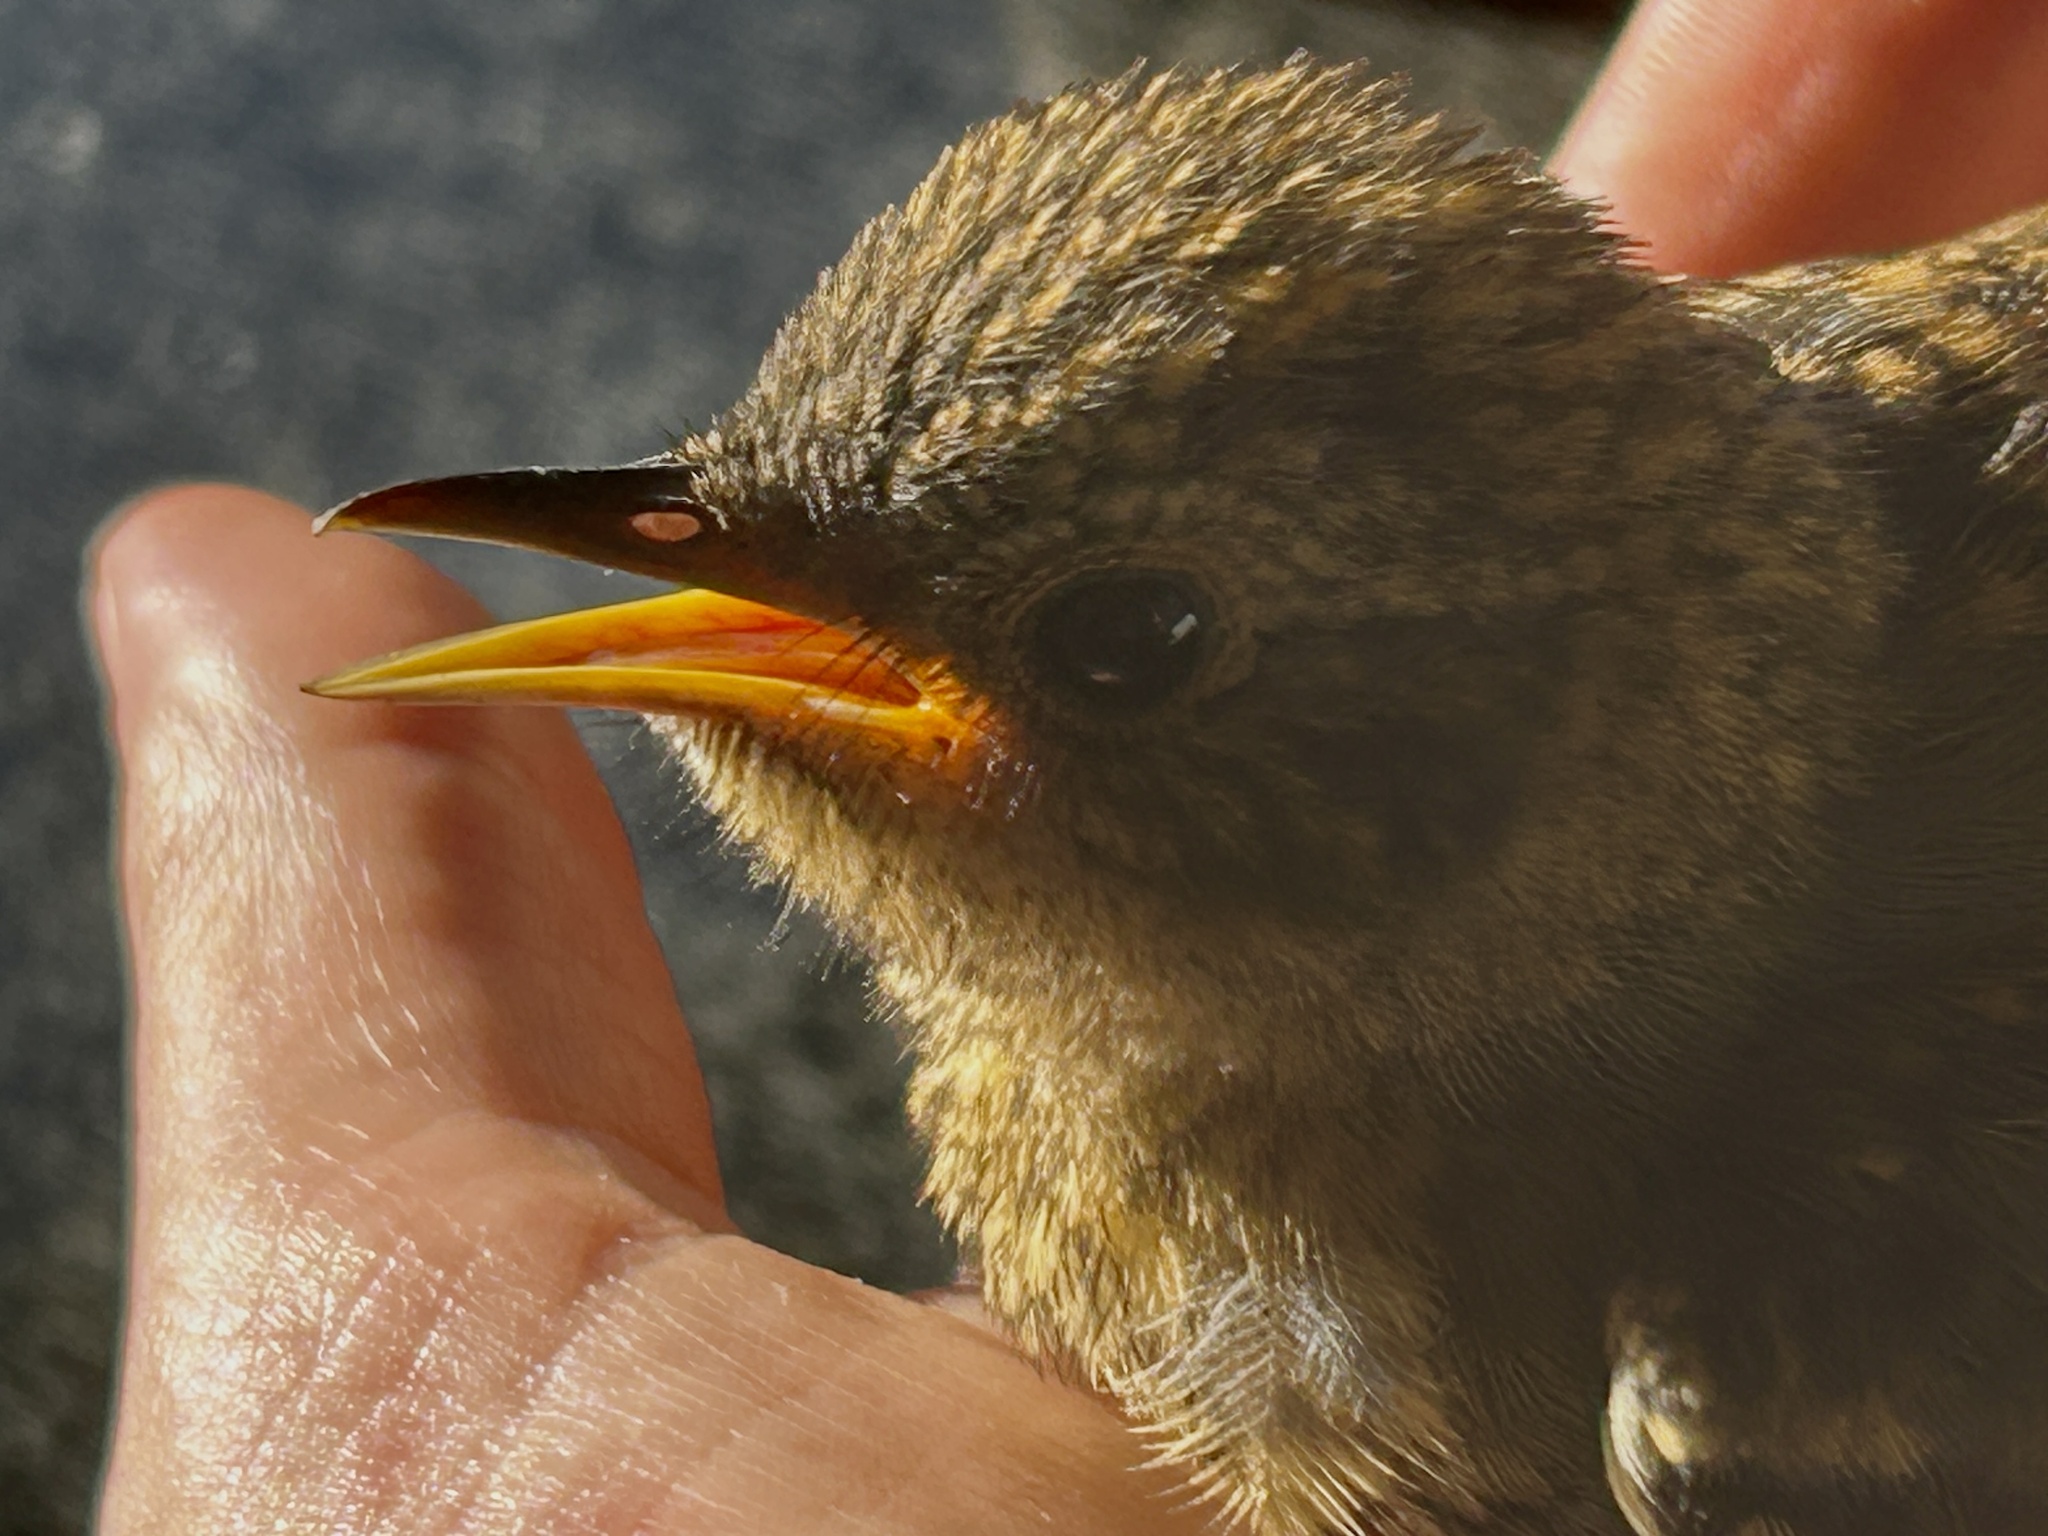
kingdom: Animalia
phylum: Chordata
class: Aves
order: Passeriformes
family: Muscicapidae
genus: Cossypha
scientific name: Cossypha caffra
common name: Cape robin-chat
